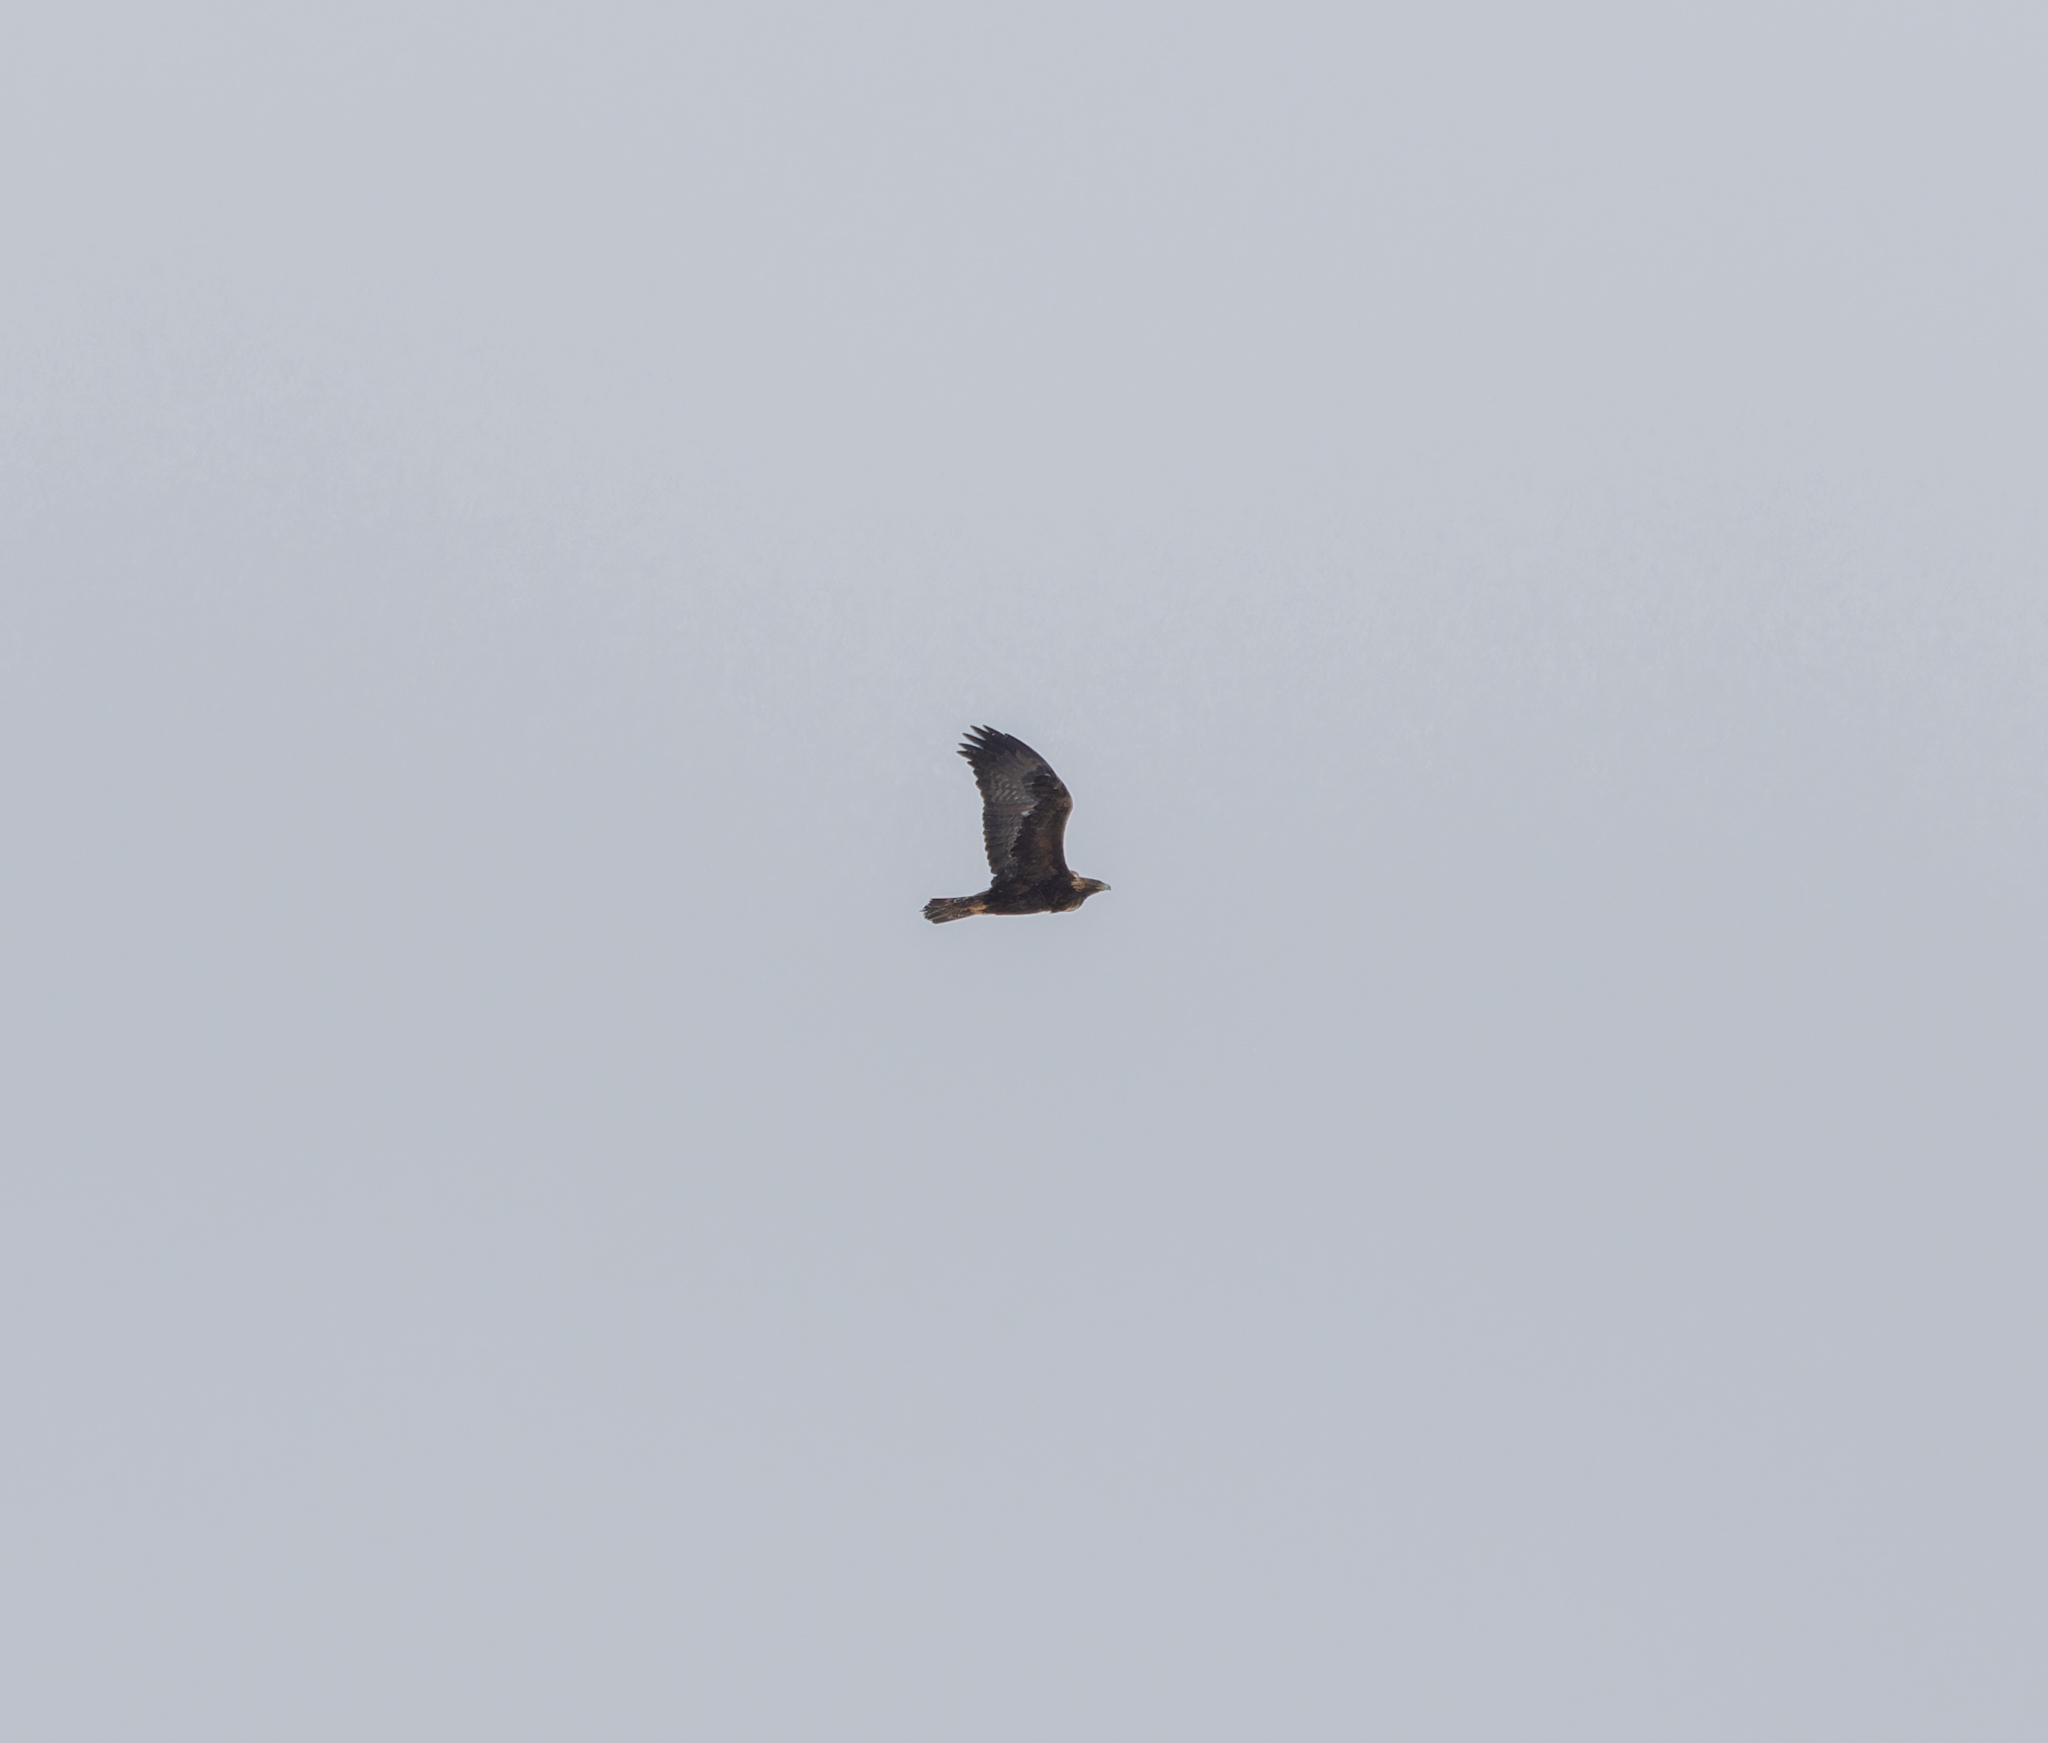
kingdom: Animalia
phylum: Chordata
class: Aves
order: Accipitriformes
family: Accipitridae
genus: Aquila
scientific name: Aquila chrysaetos
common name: Golden eagle
